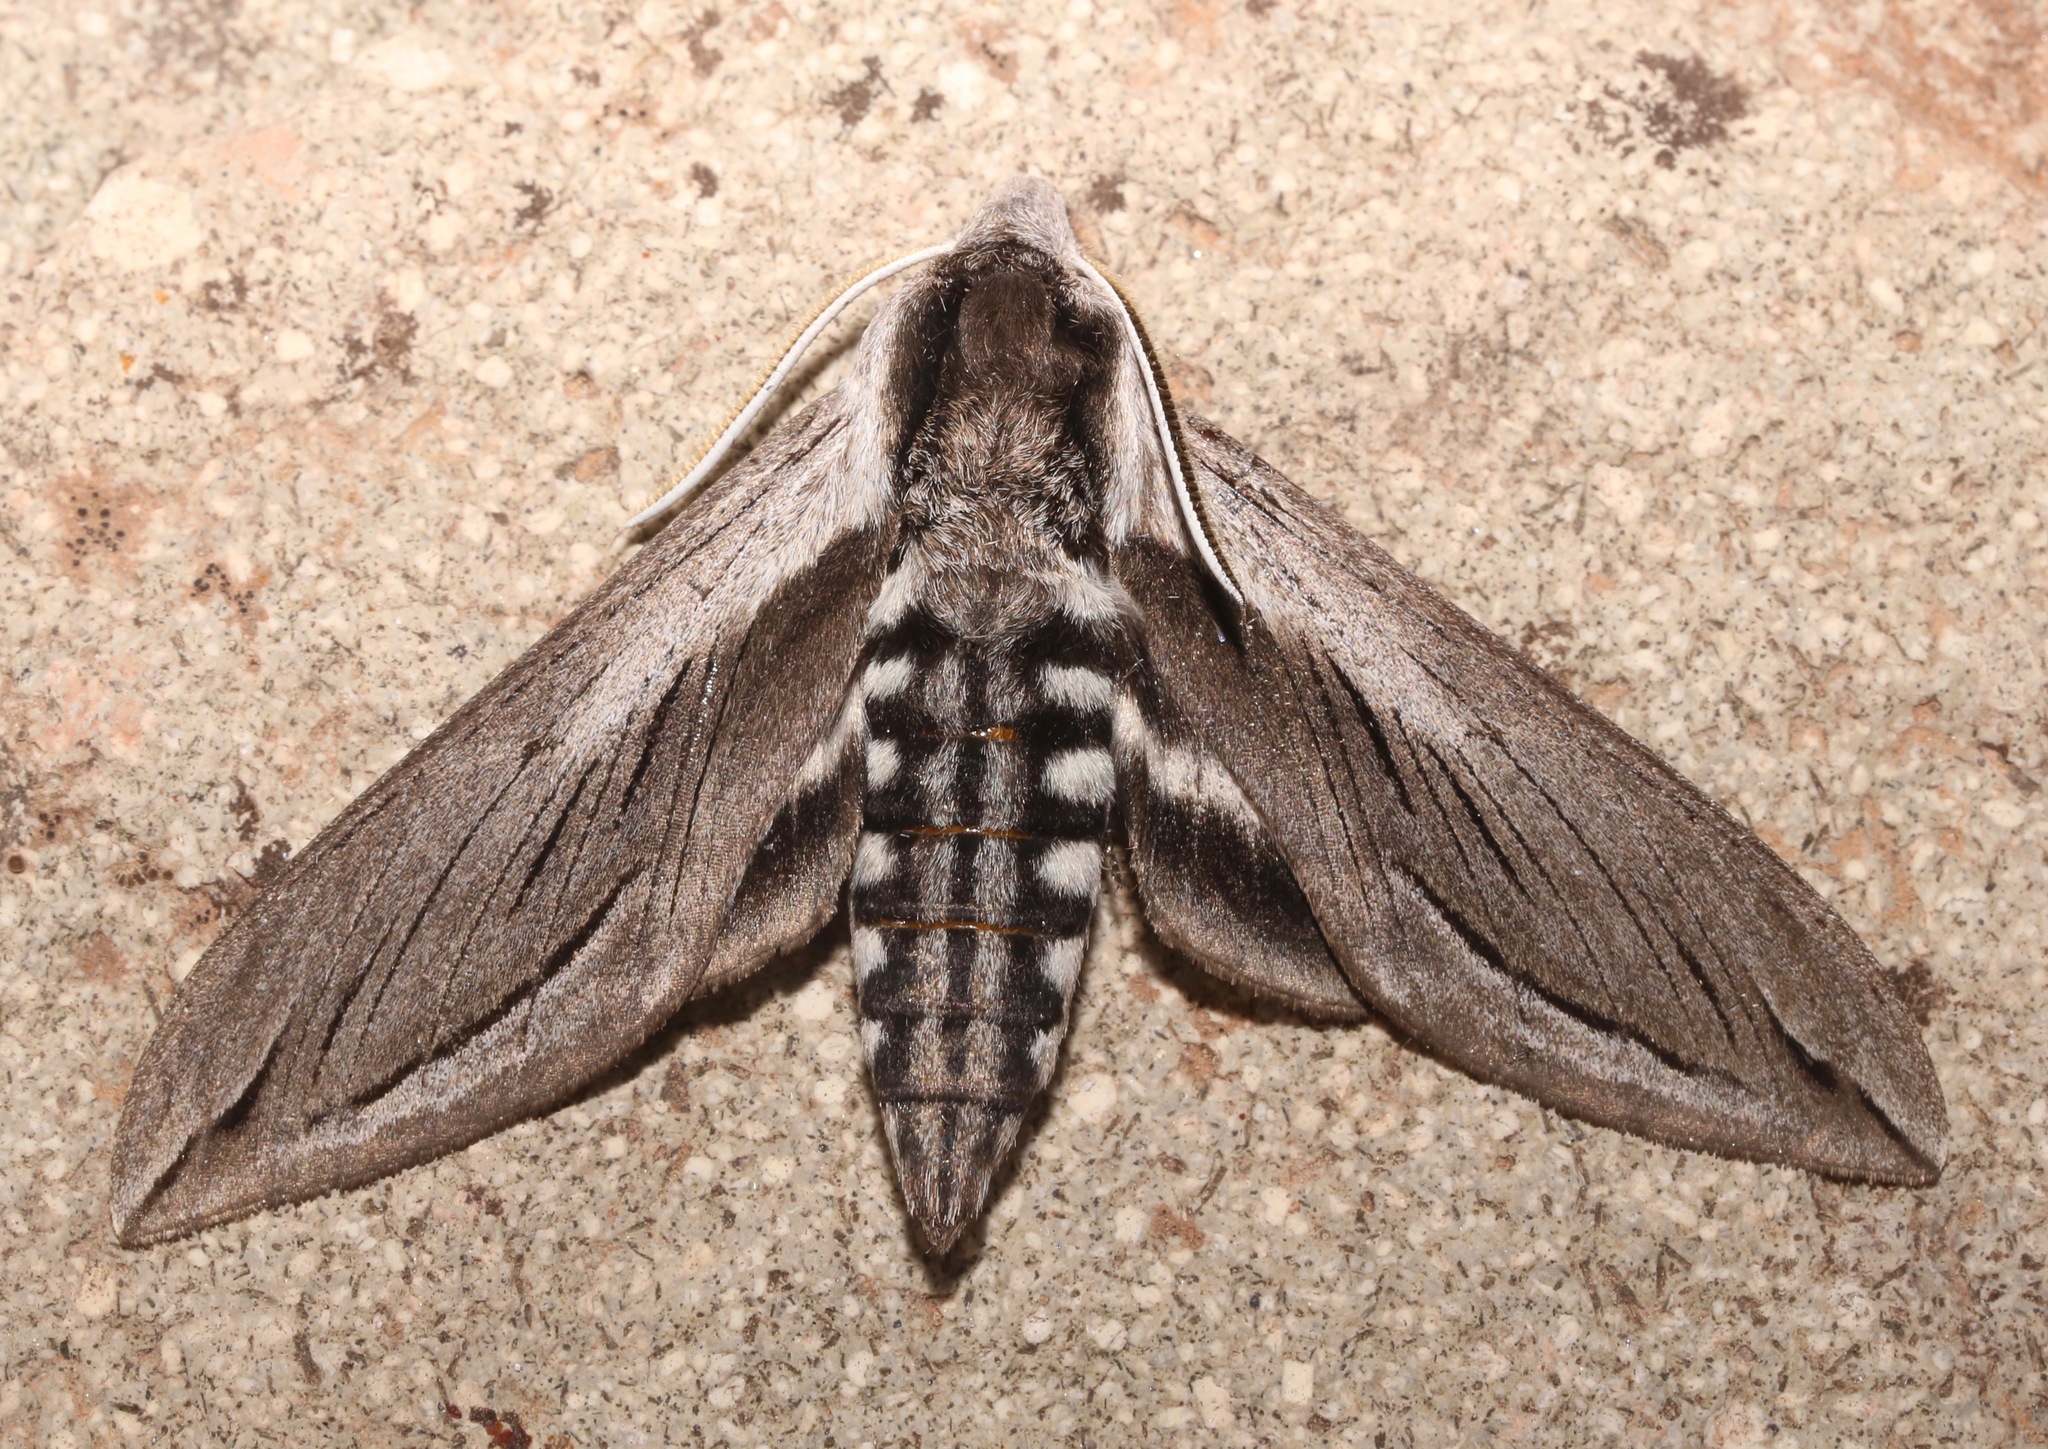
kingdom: Animalia
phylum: Arthropoda
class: Insecta
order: Lepidoptera
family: Sphingidae
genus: Sphinx
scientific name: Sphinx vashti
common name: Snowberry sphinx
